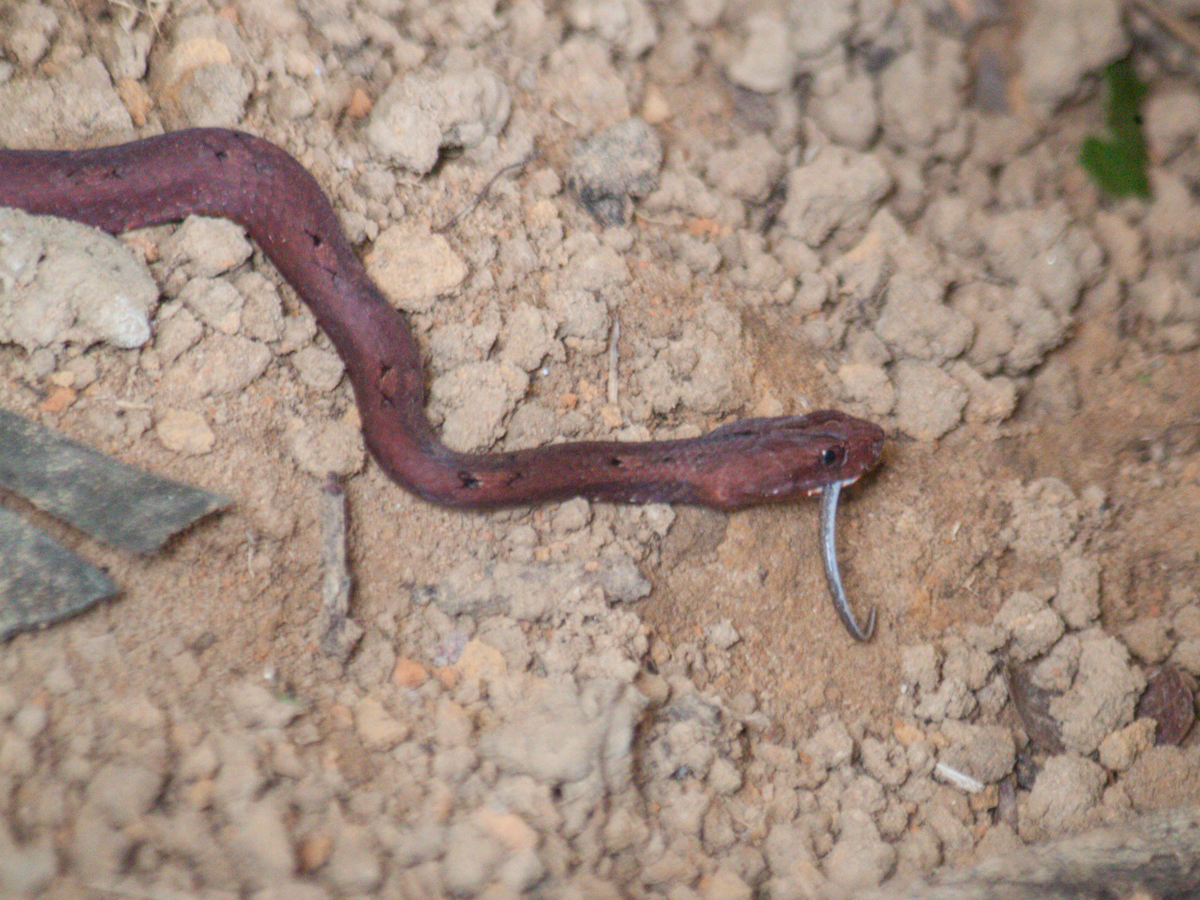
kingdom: Animalia
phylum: Chordata
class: Squamata
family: Pseudaspididae
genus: Psammodynastes
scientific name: Psammodynastes pulverulentus
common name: Common mock viper
